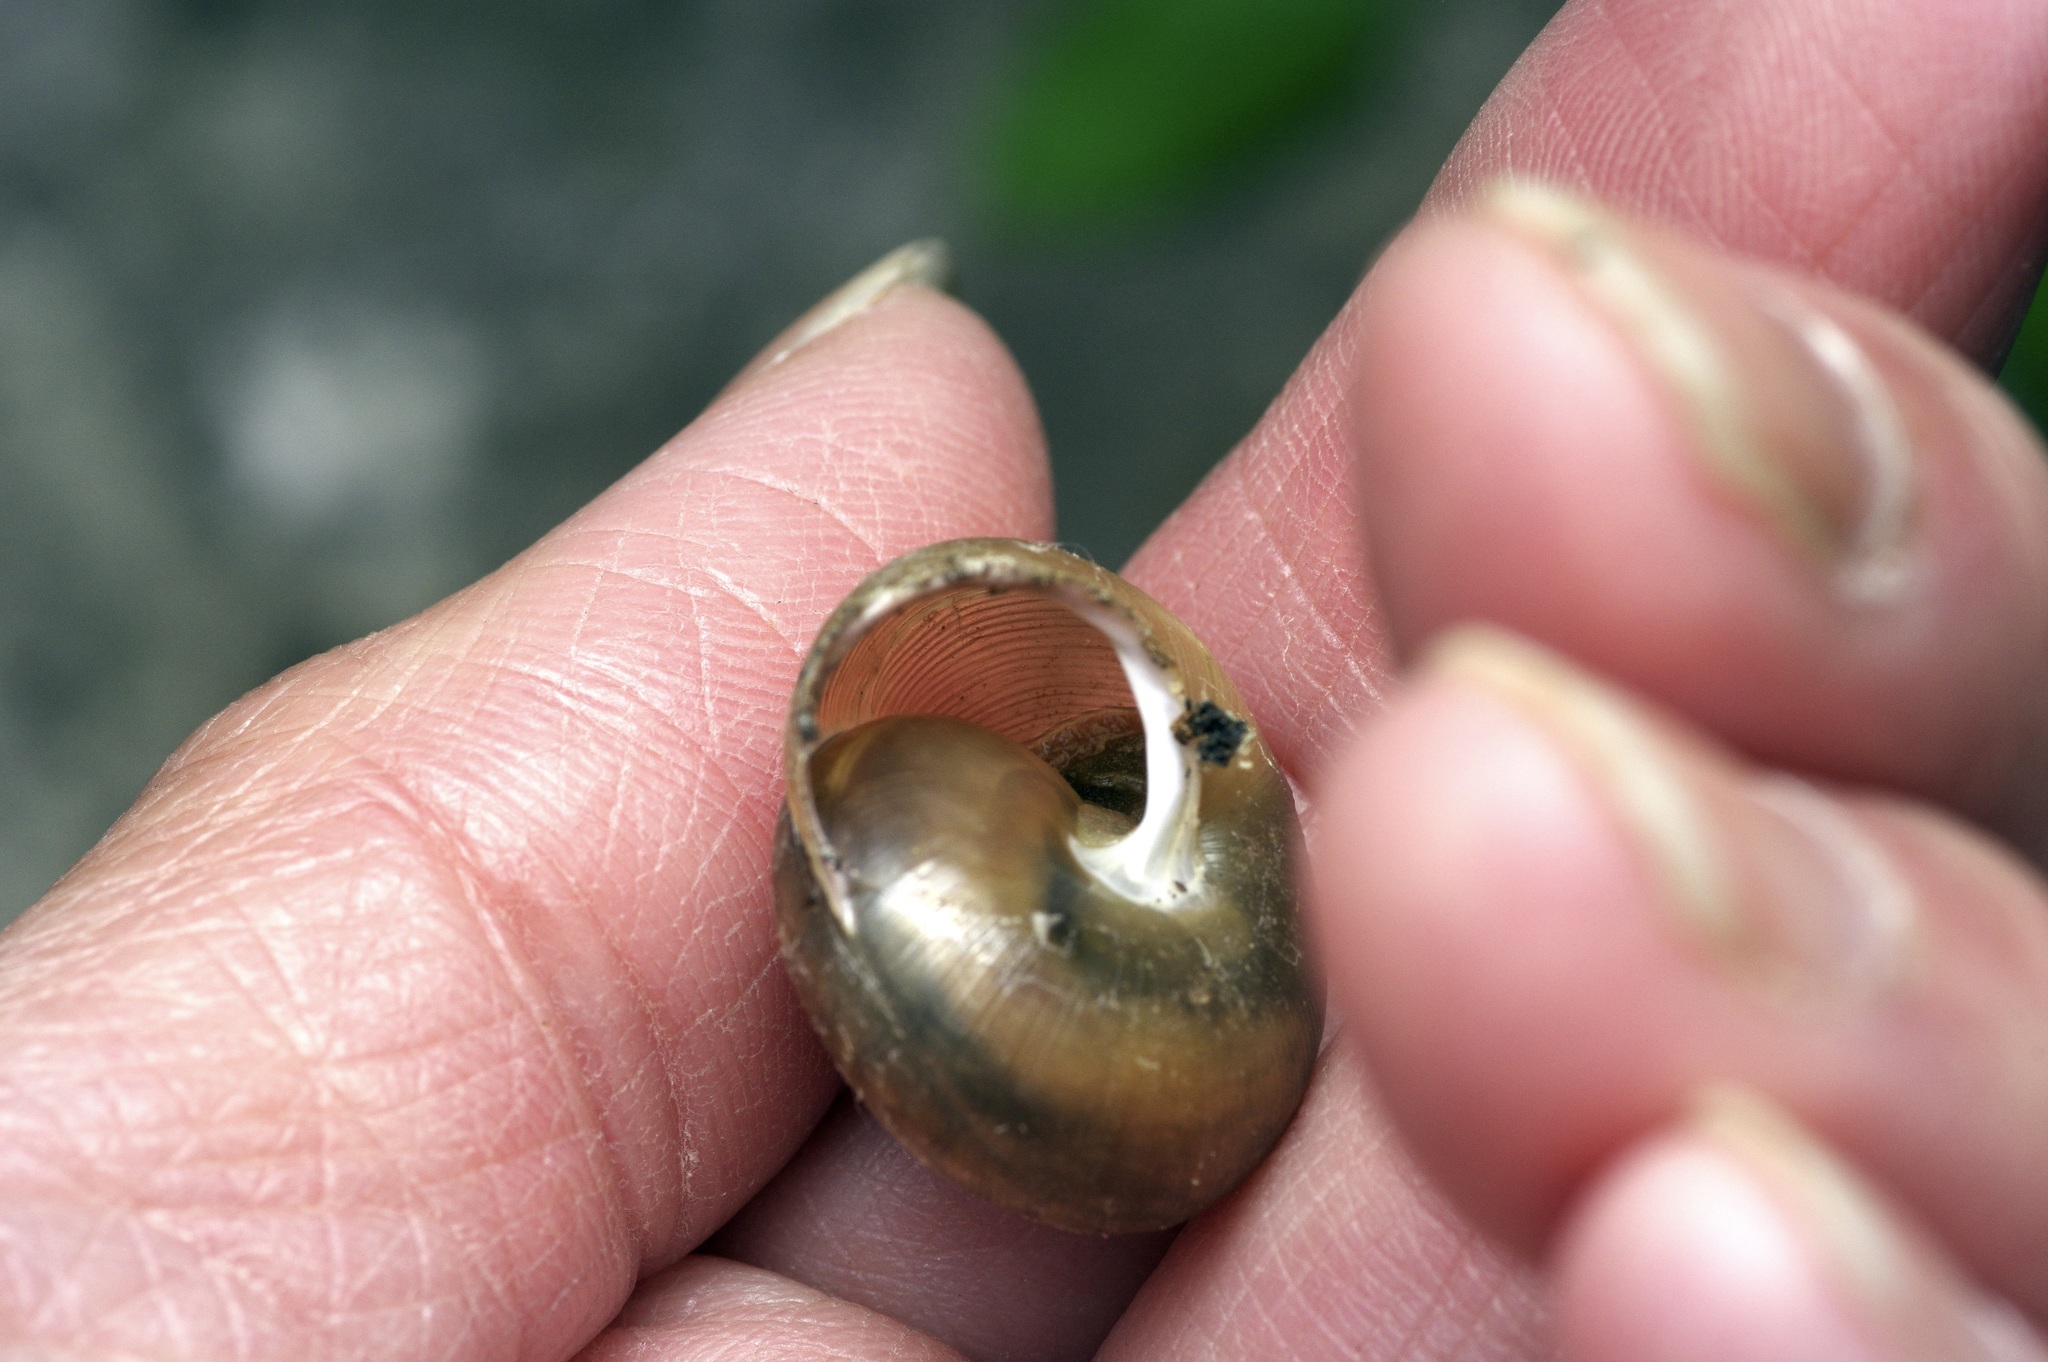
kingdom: Animalia
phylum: Mollusca
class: Gastropoda
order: Stylommatophora
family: Polygyridae
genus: Mesodon
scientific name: Mesodon thyroidus
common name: White-lip globe
